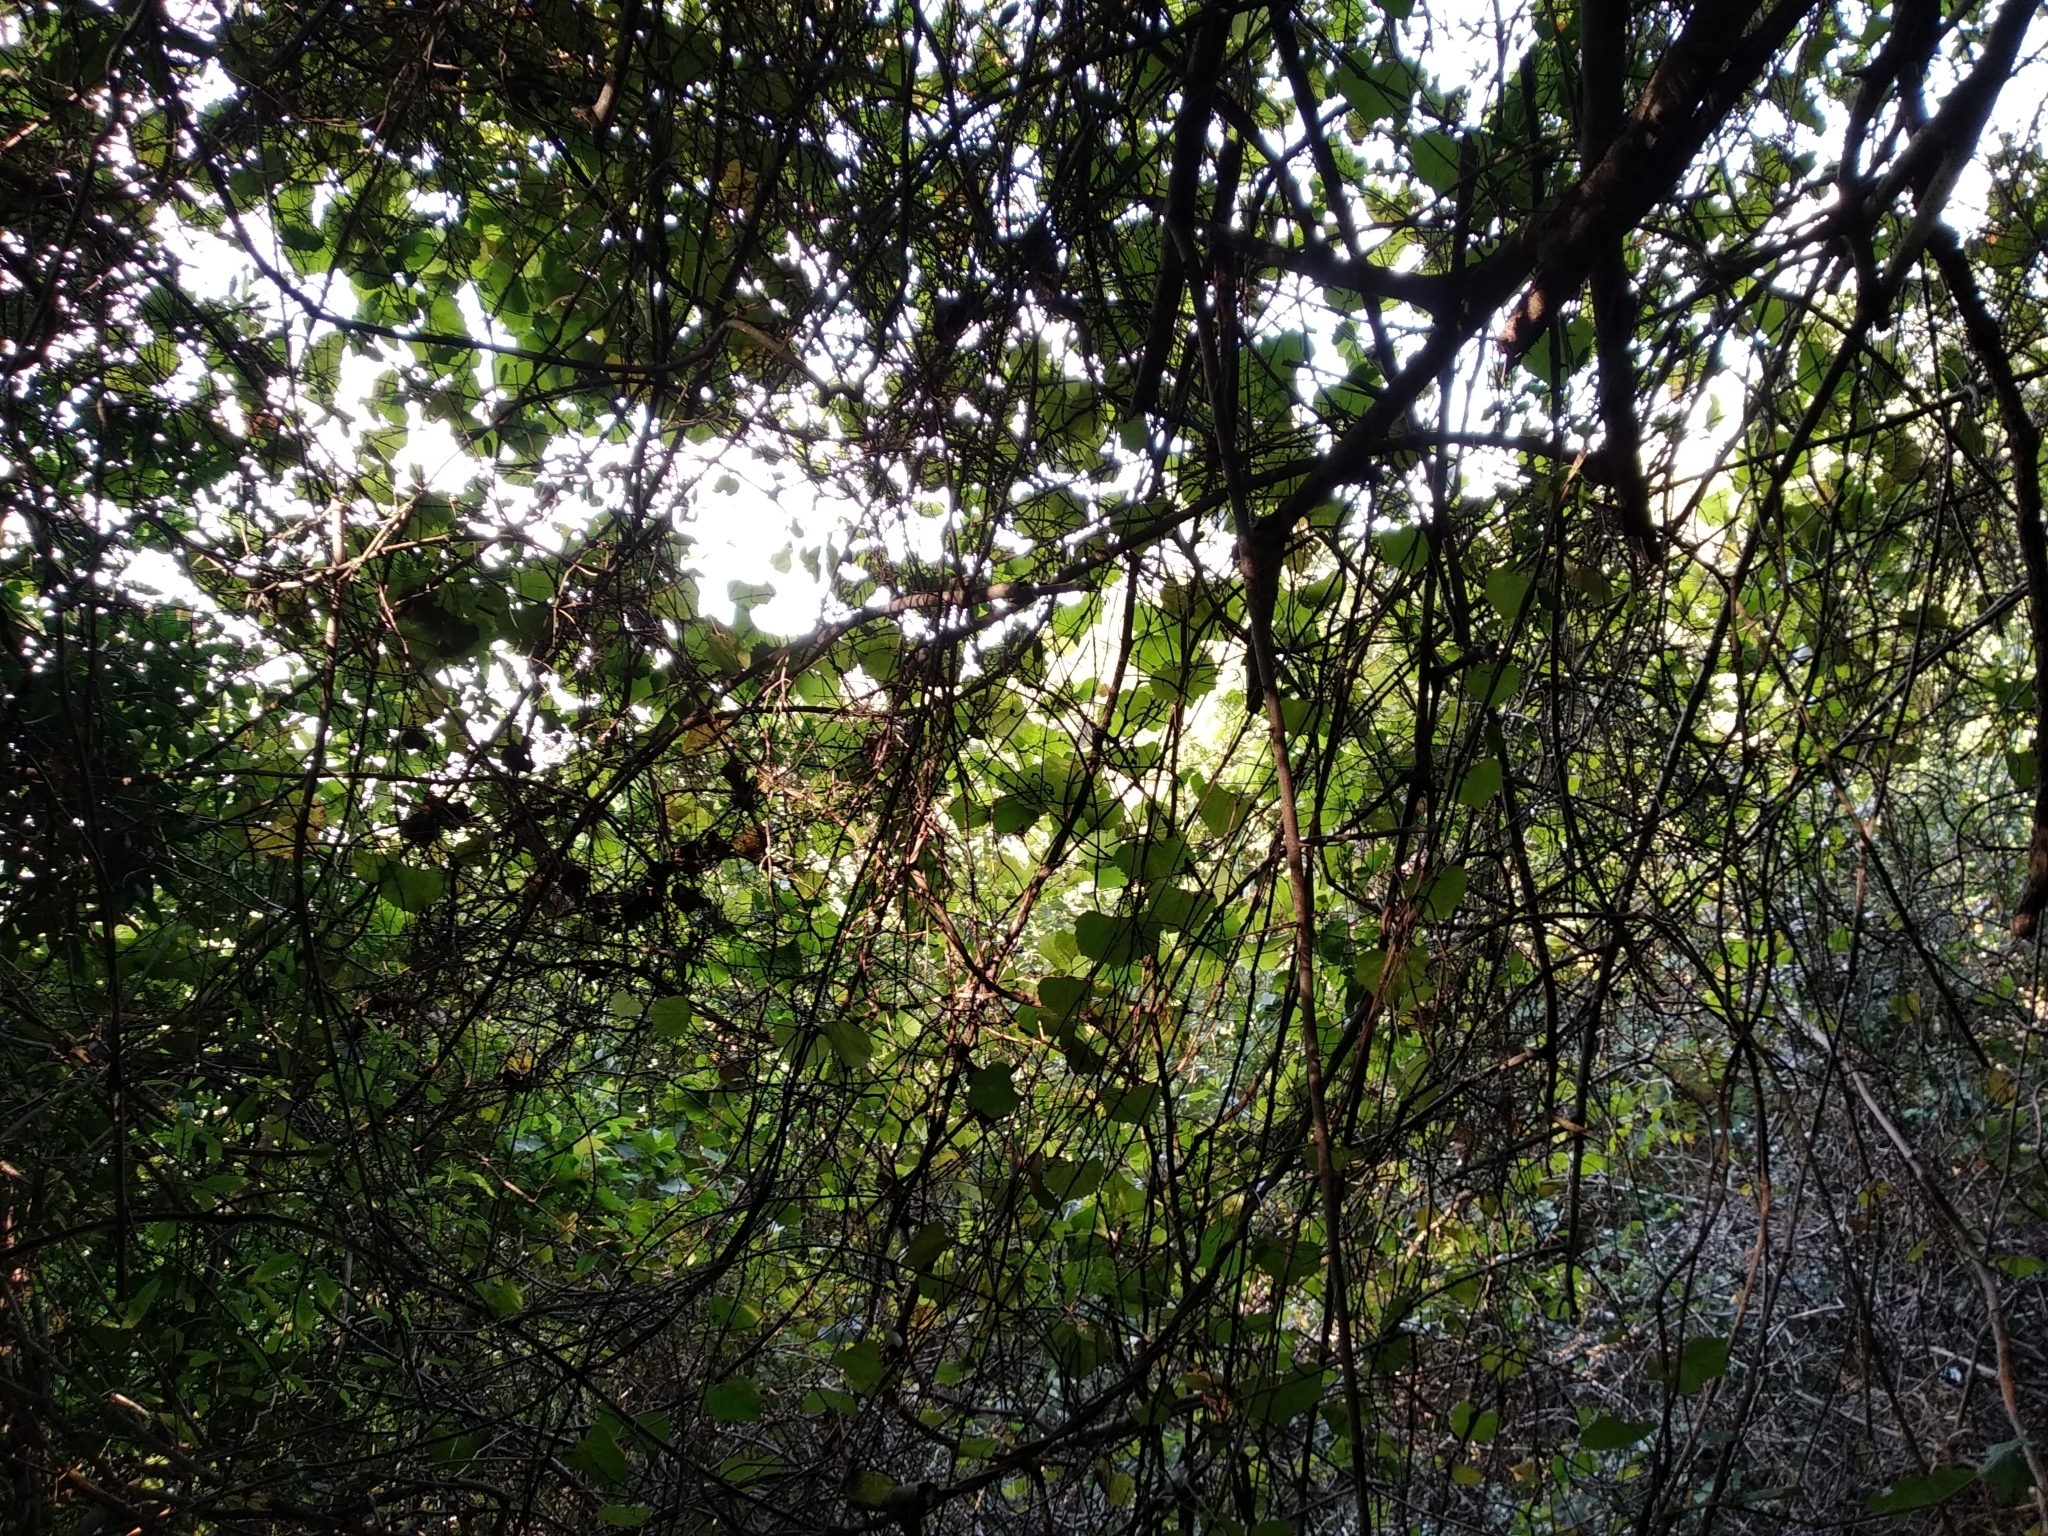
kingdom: Plantae
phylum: Tracheophyta
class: Magnoliopsida
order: Vitales
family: Vitaceae
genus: Rhoicissus
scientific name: Rhoicissus tomentosa
